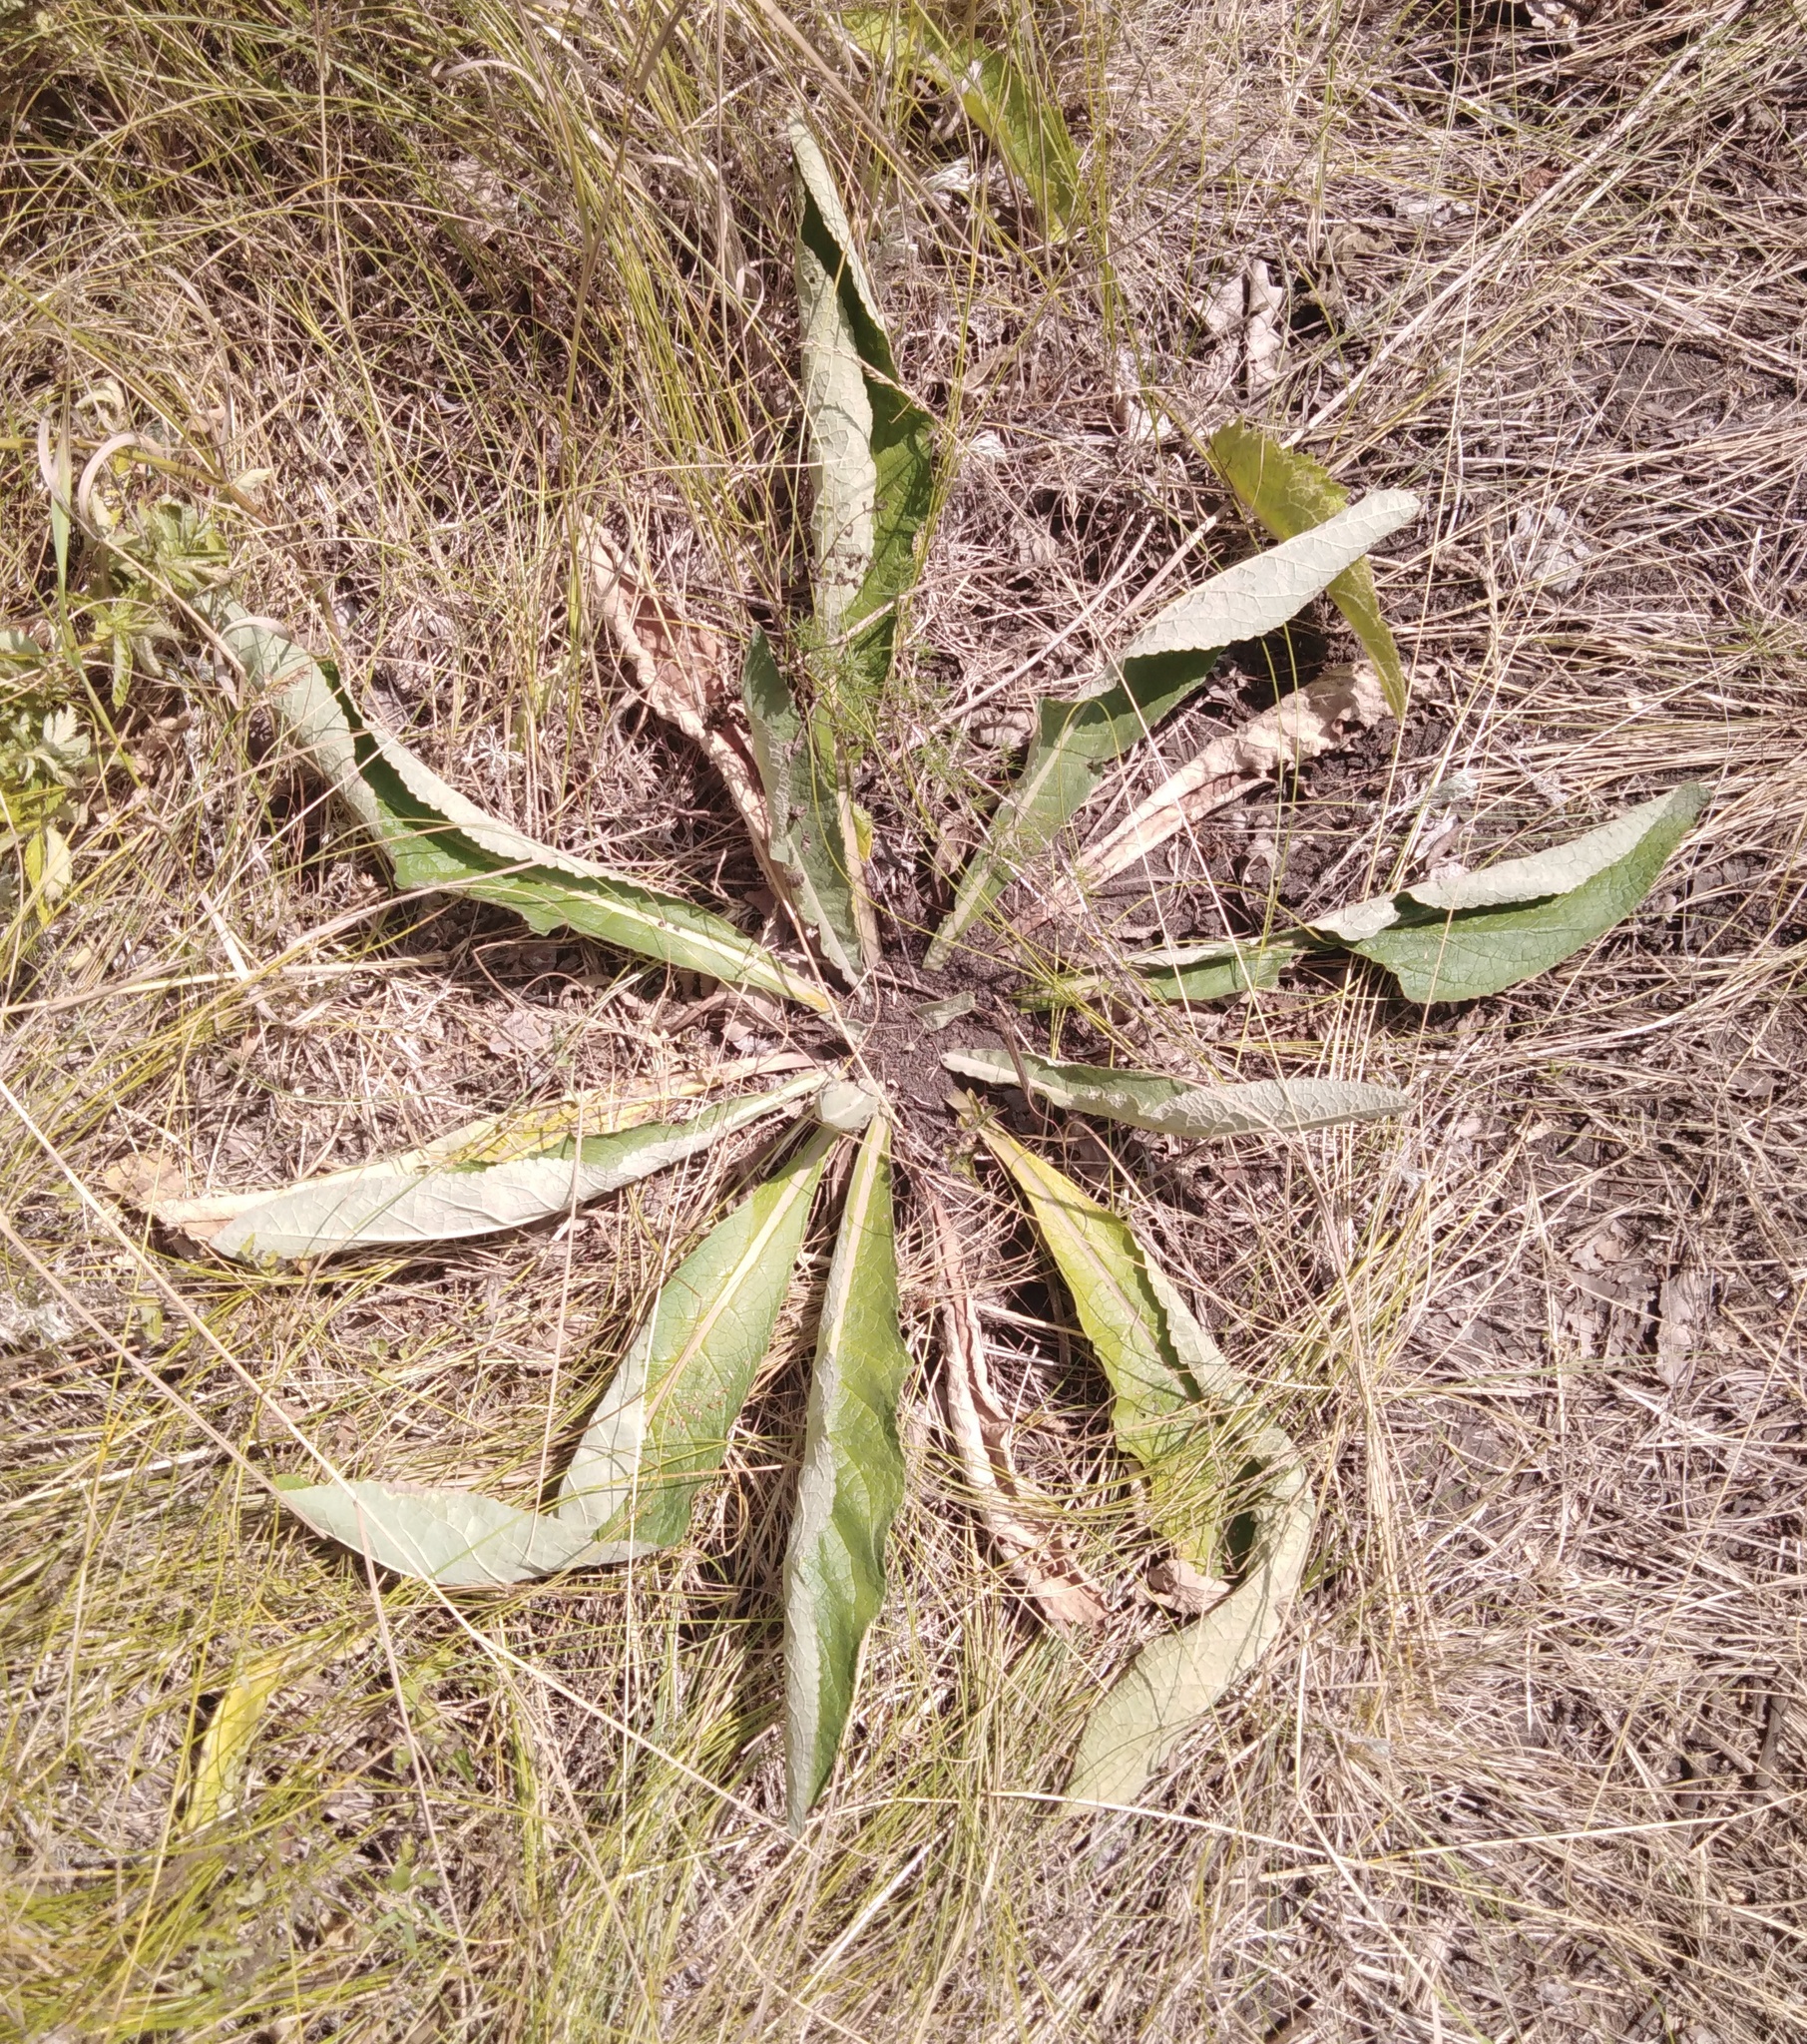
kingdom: Plantae
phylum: Tracheophyta
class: Magnoliopsida
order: Lamiales
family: Scrophulariaceae
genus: Verbascum
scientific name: Verbascum lychnitis
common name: White mullein
